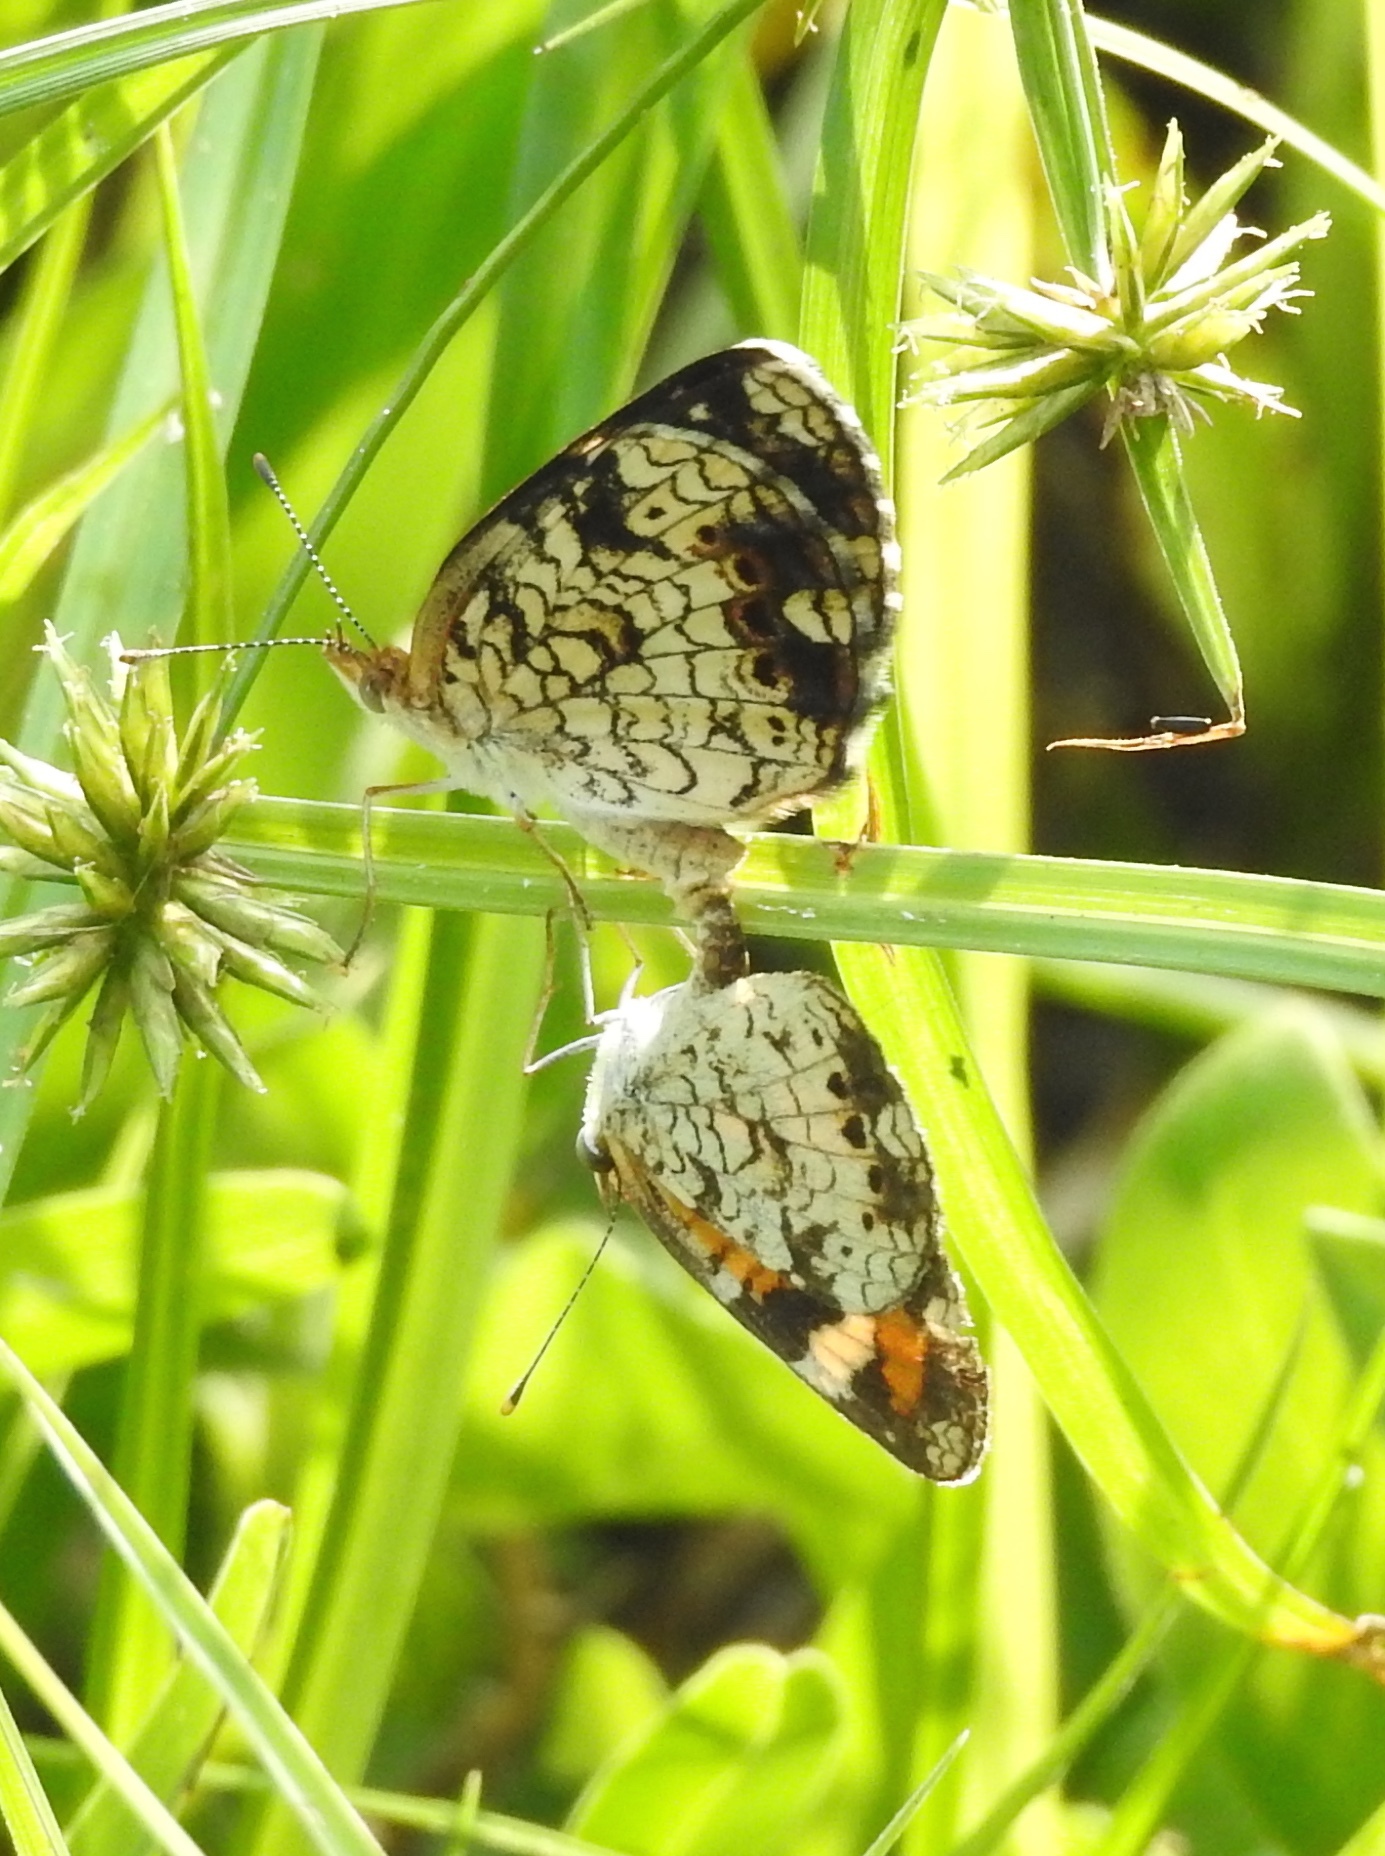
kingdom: Animalia
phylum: Arthropoda
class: Insecta
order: Lepidoptera
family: Nymphalidae
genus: Phyciodes
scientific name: Phyciodes phaon
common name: Phaon crescent
